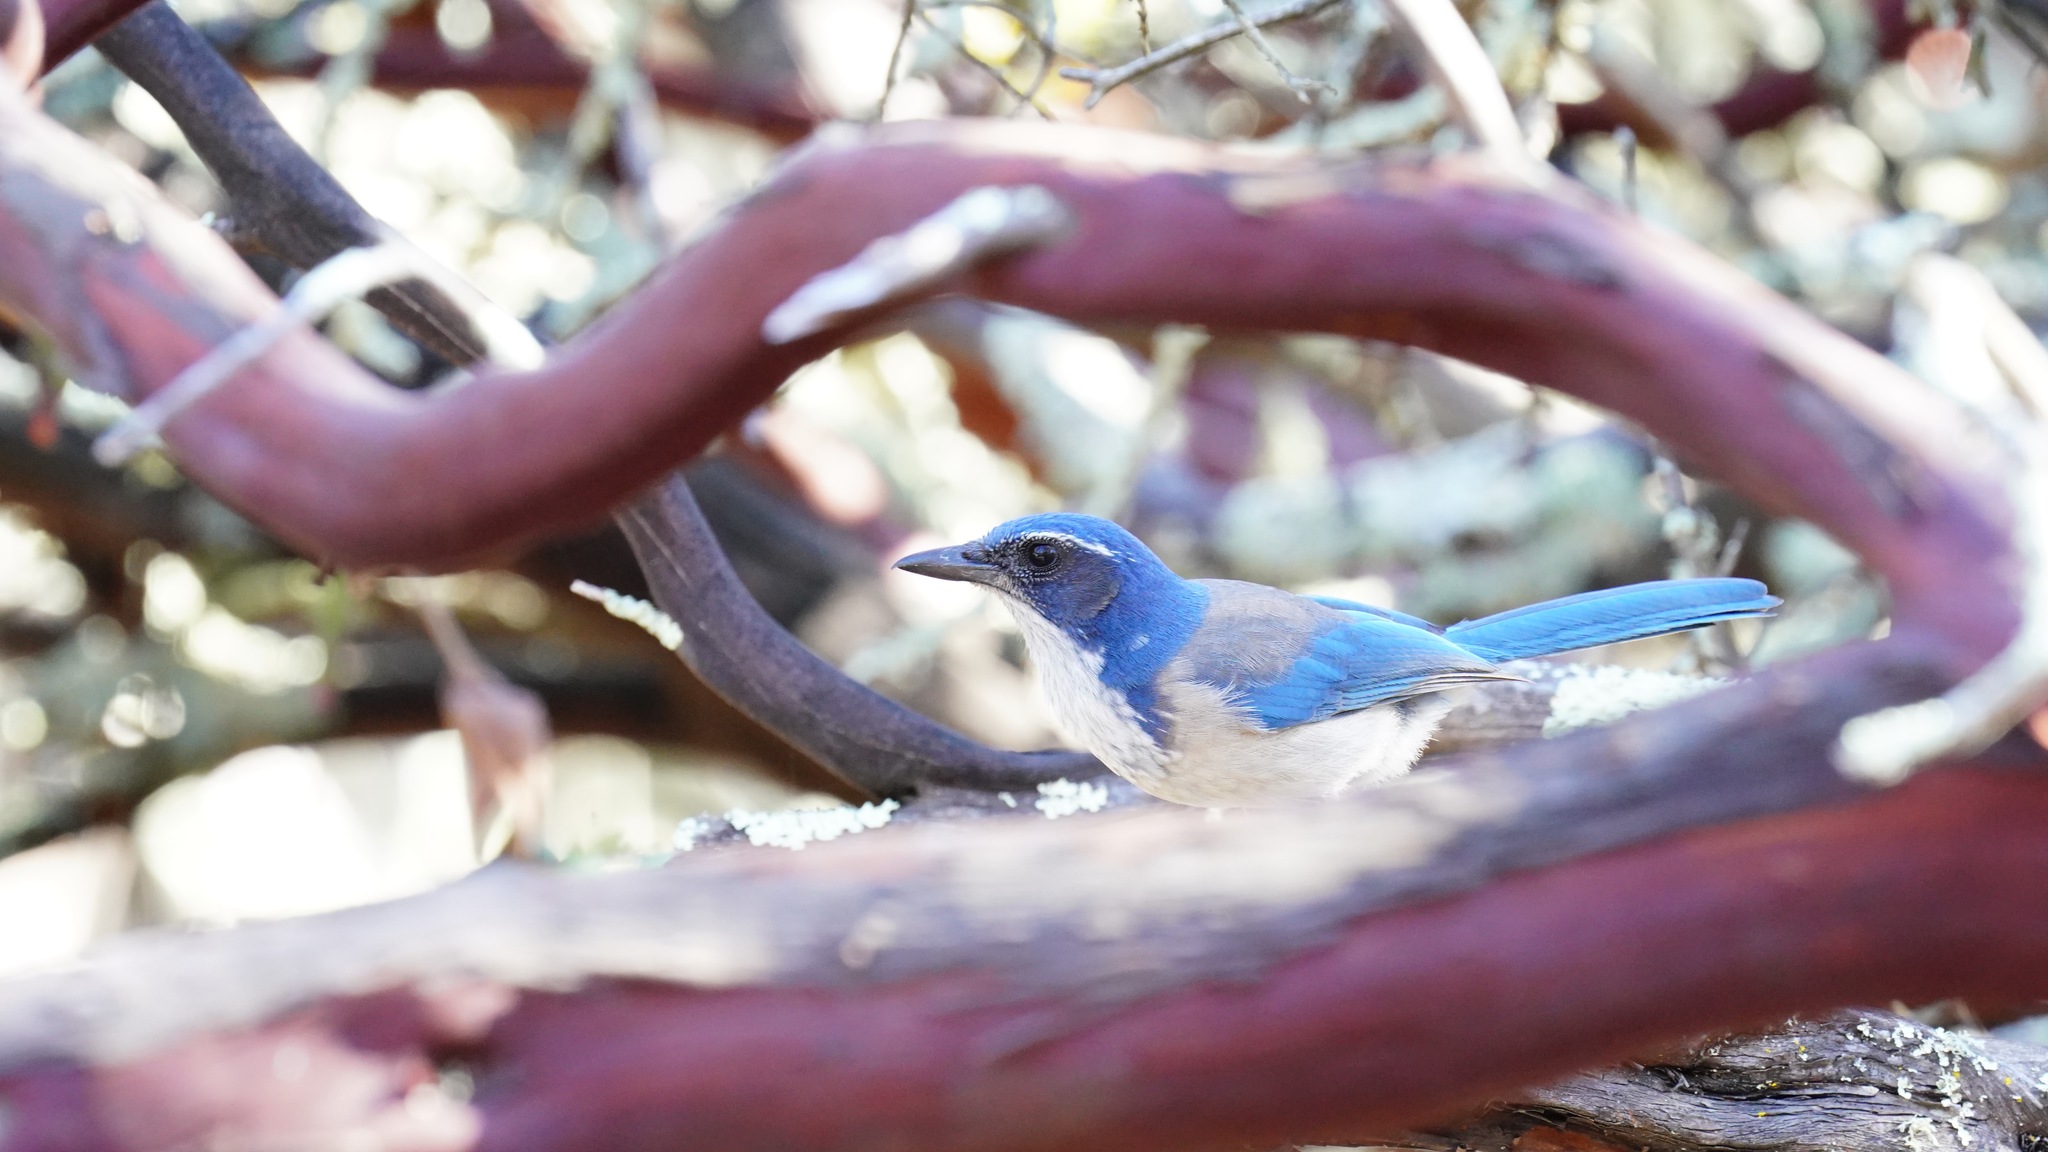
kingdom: Animalia
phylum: Chordata
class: Aves
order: Passeriformes
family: Corvidae
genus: Aphelocoma
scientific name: Aphelocoma californica
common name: California scrub-jay
